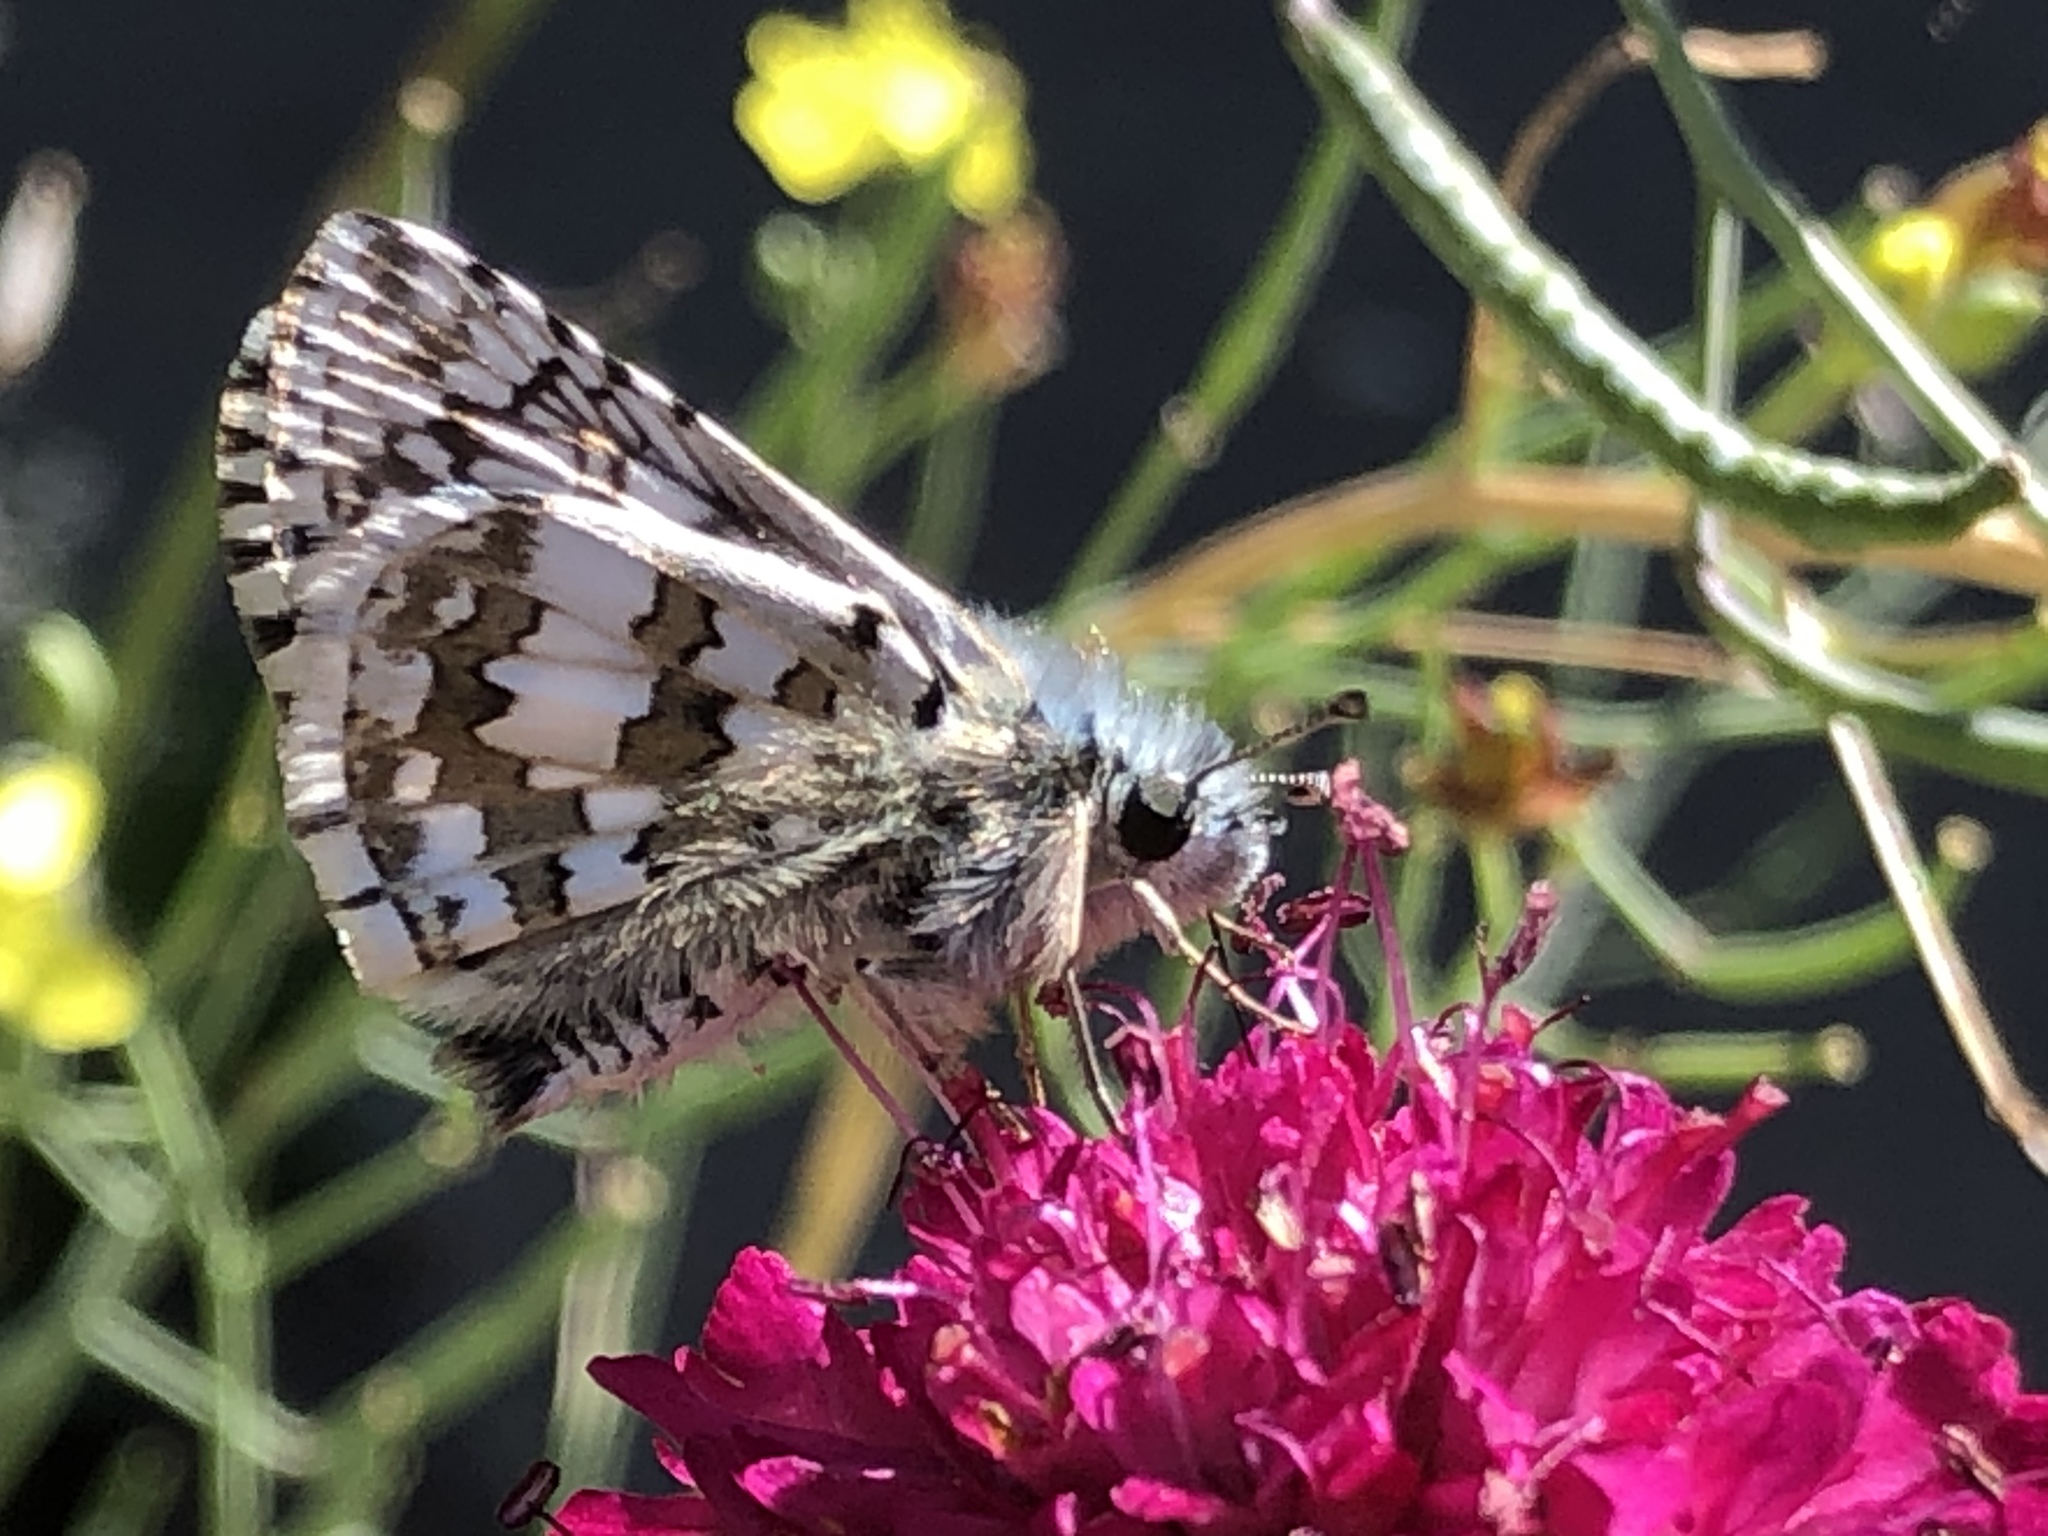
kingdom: Animalia
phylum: Arthropoda
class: Insecta
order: Lepidoptera
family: Hesperiidae
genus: Burnsius
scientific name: Burnsius communis
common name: Common checkered-skipper
